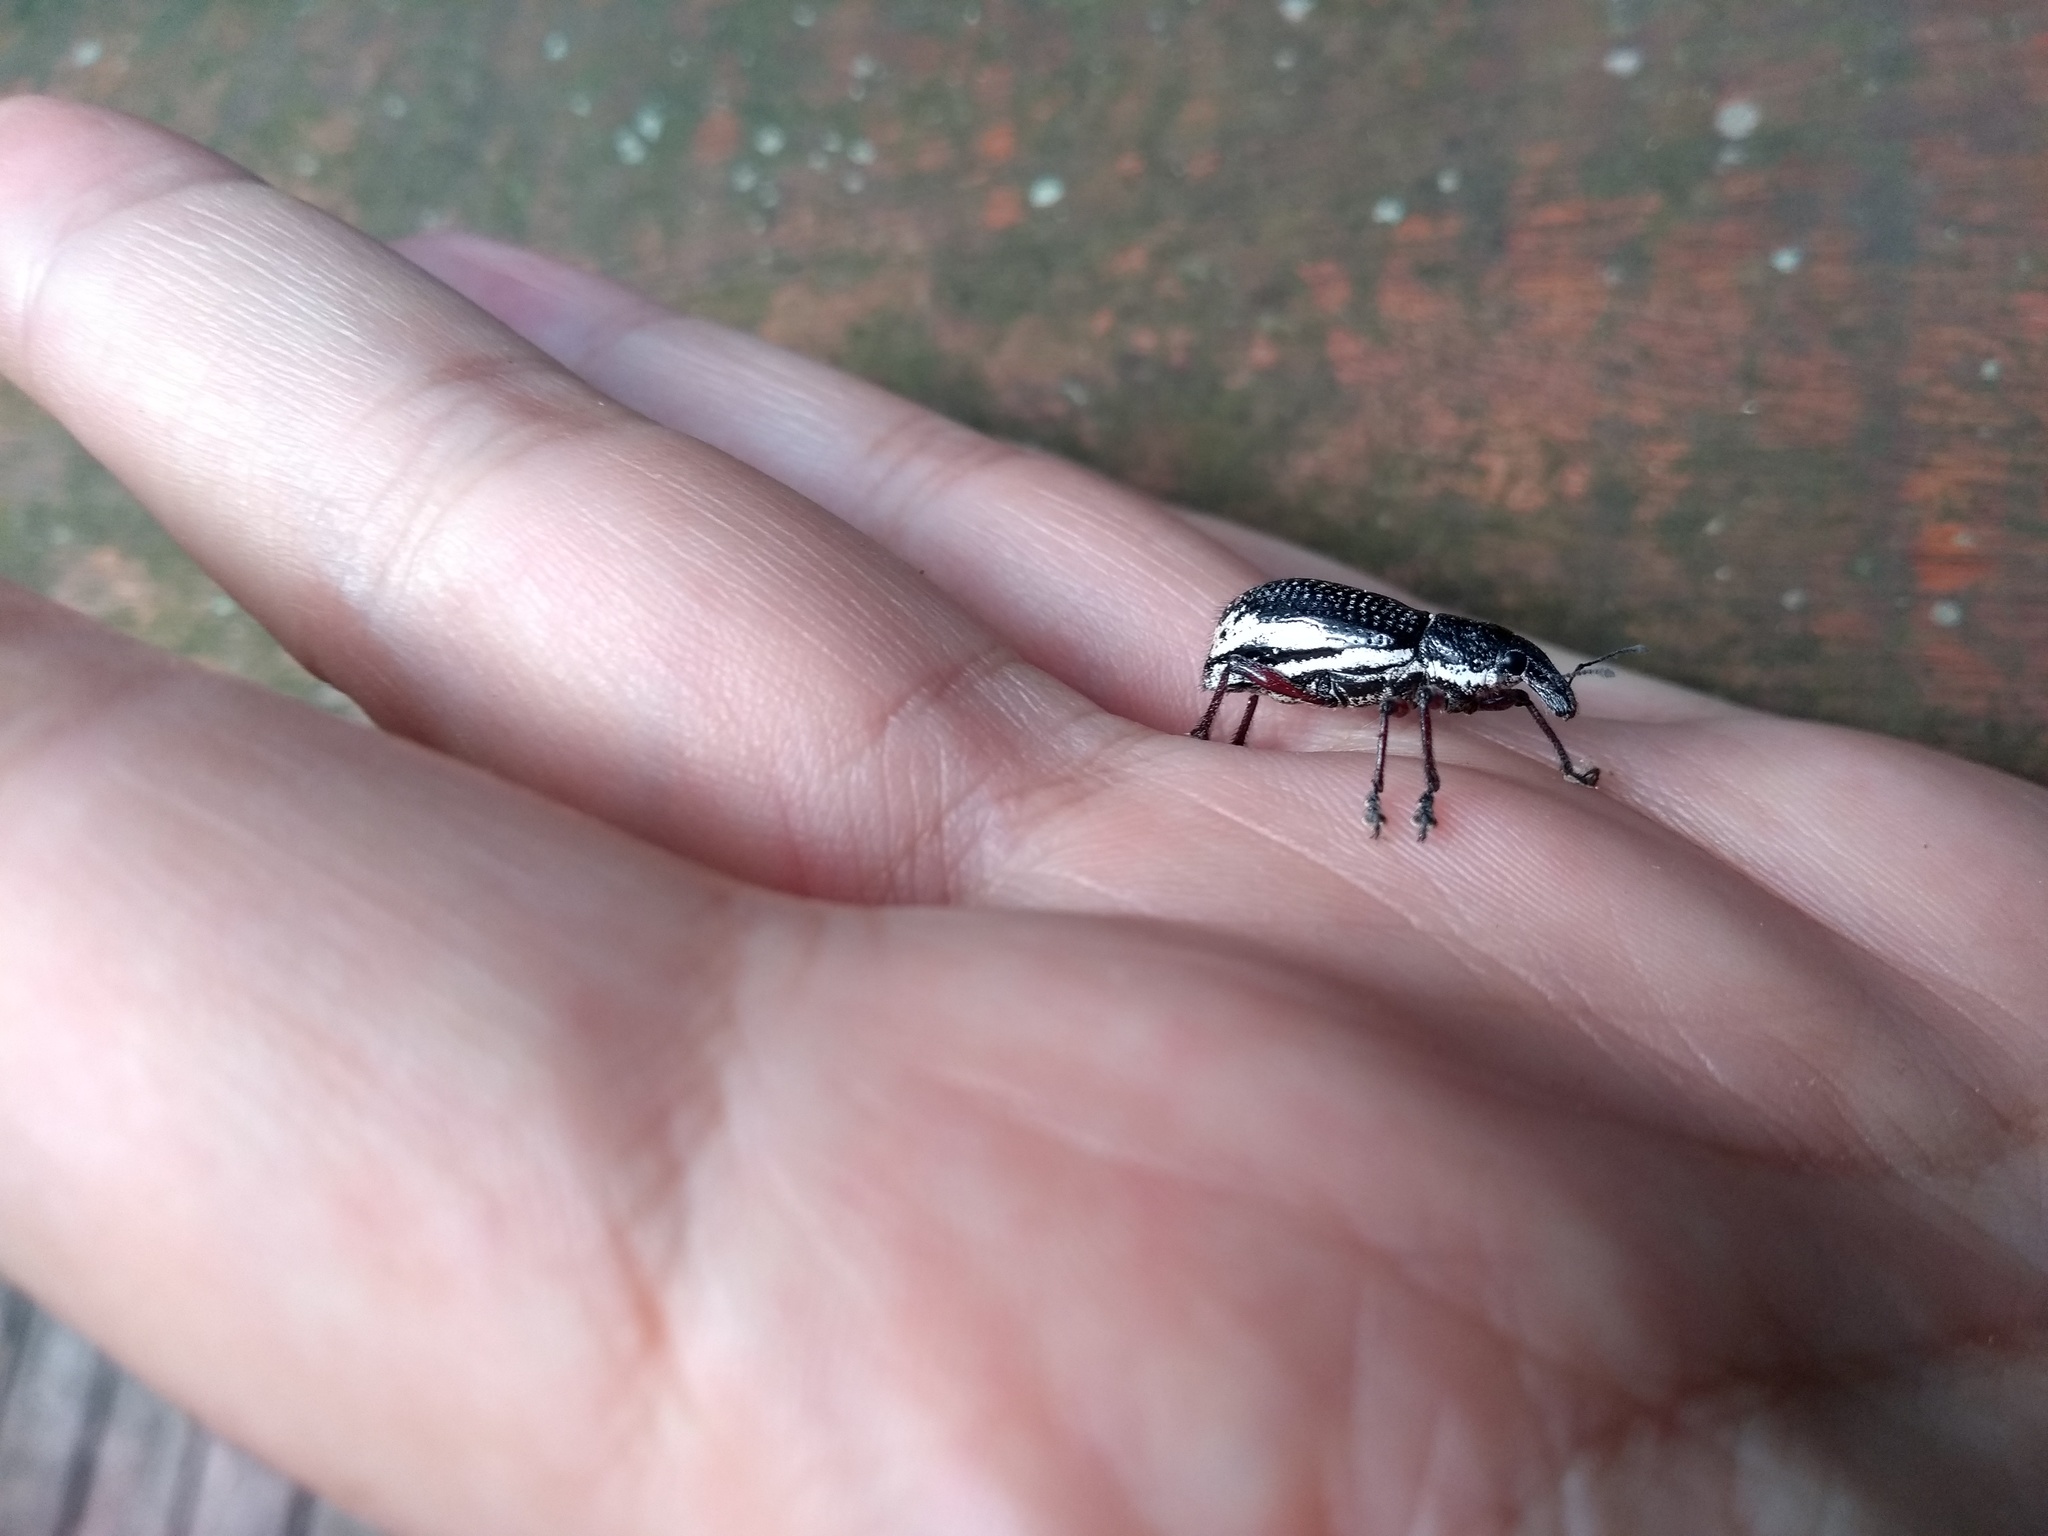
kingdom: Animalia
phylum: Arthropoda
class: Insecta
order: Coleoptera
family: Curculionidae
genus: Alocorhinus
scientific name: Alocorhinus curtisi
